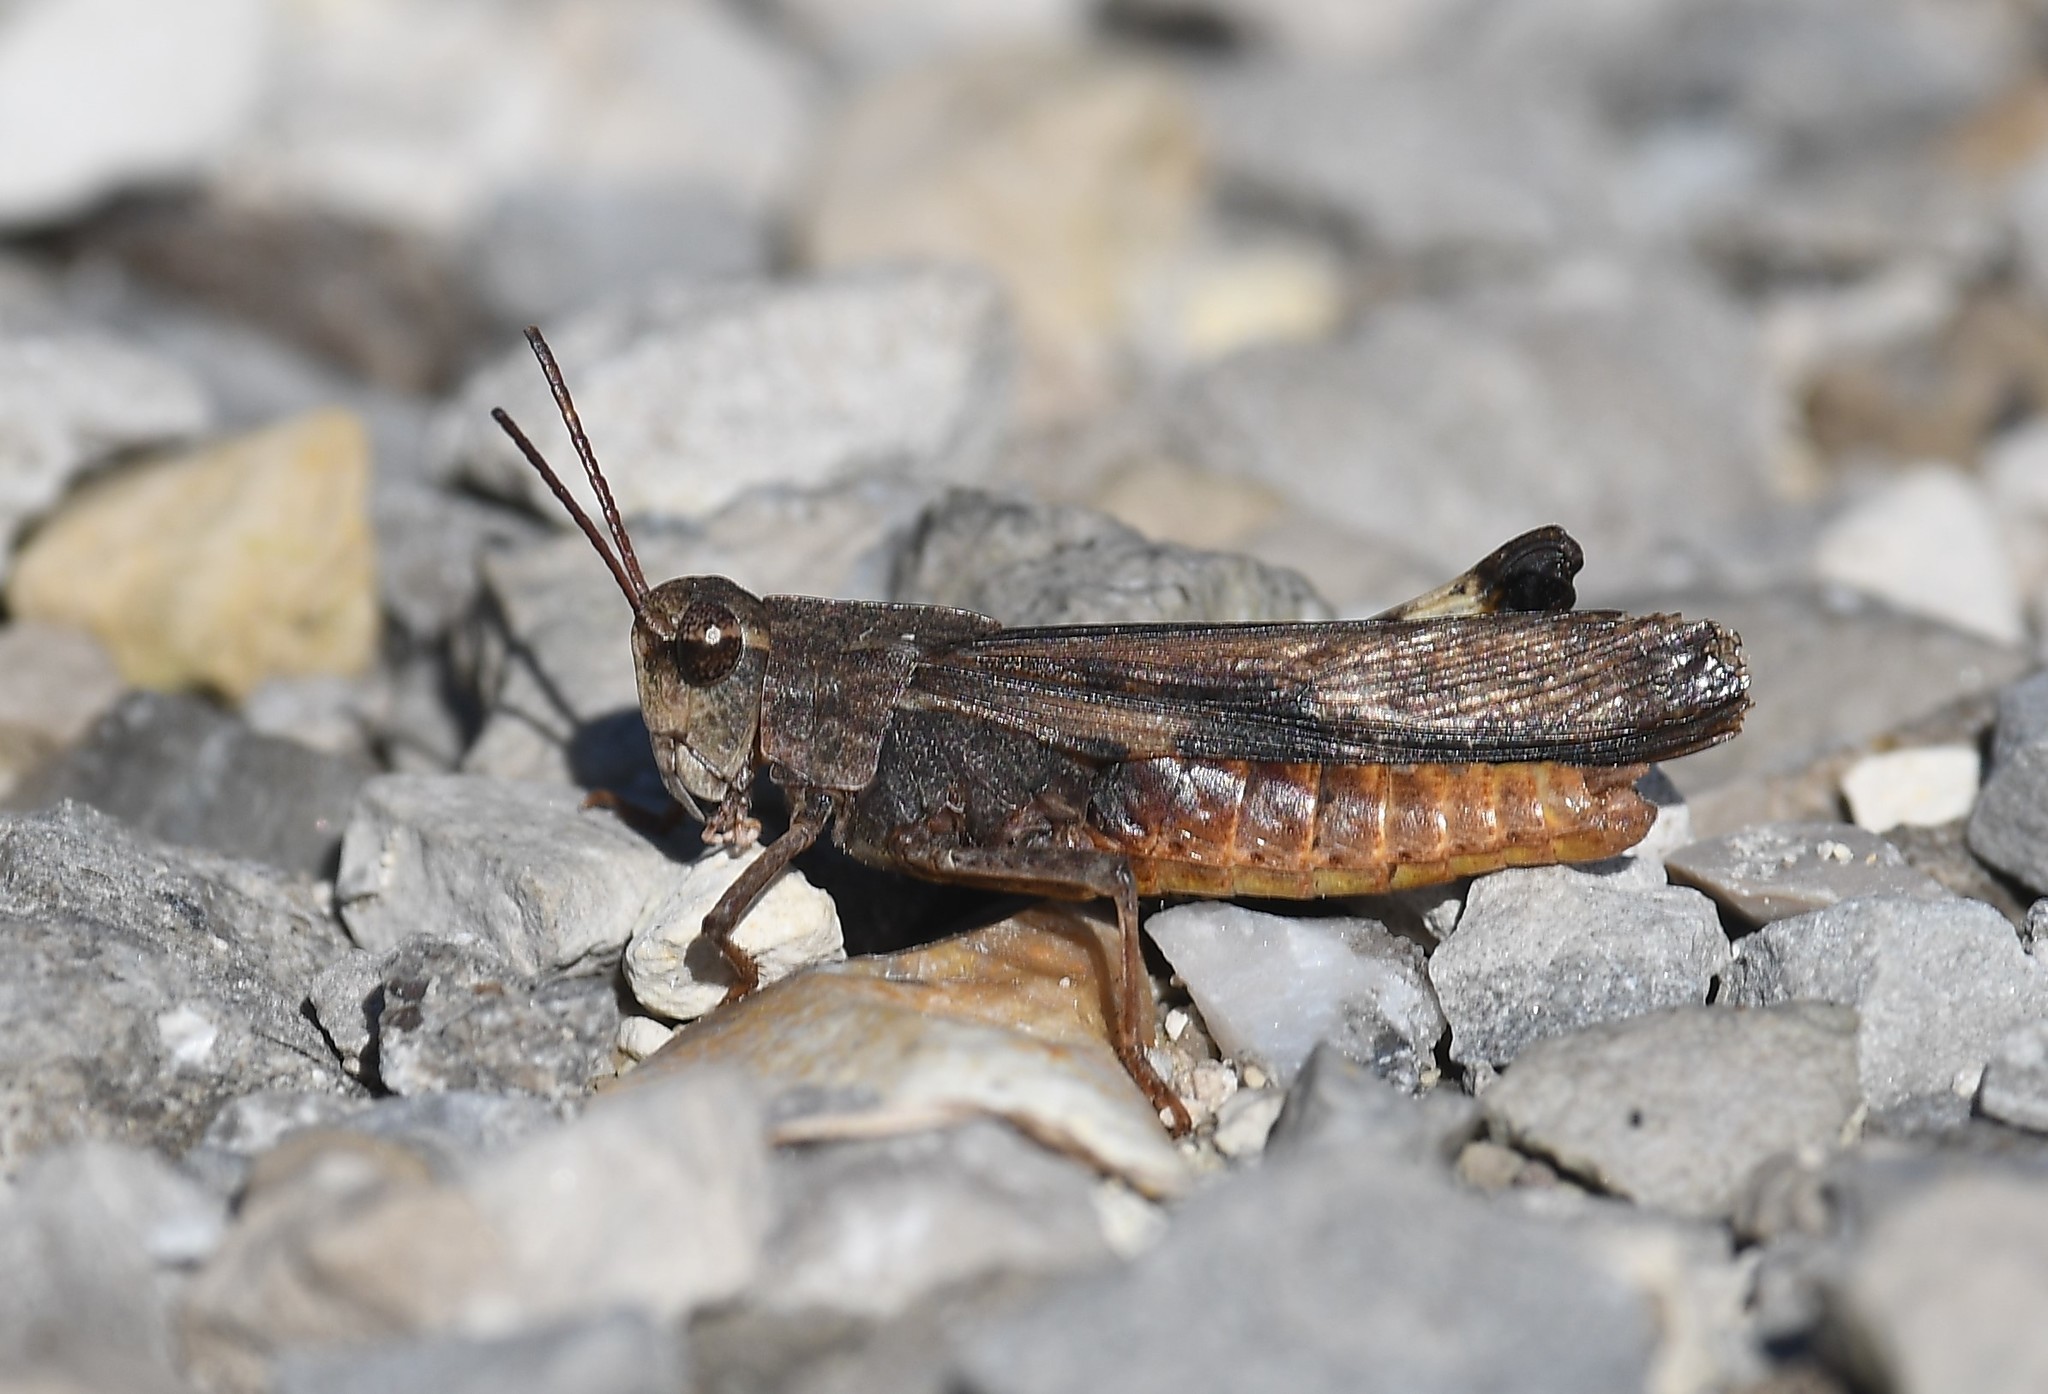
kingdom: Animalia
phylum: Arthropoda
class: Insecta
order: Orthoptera
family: Acrididae
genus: Chortophaga
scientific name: Chortophaga viridifasciata
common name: Green-striped grasshopper
